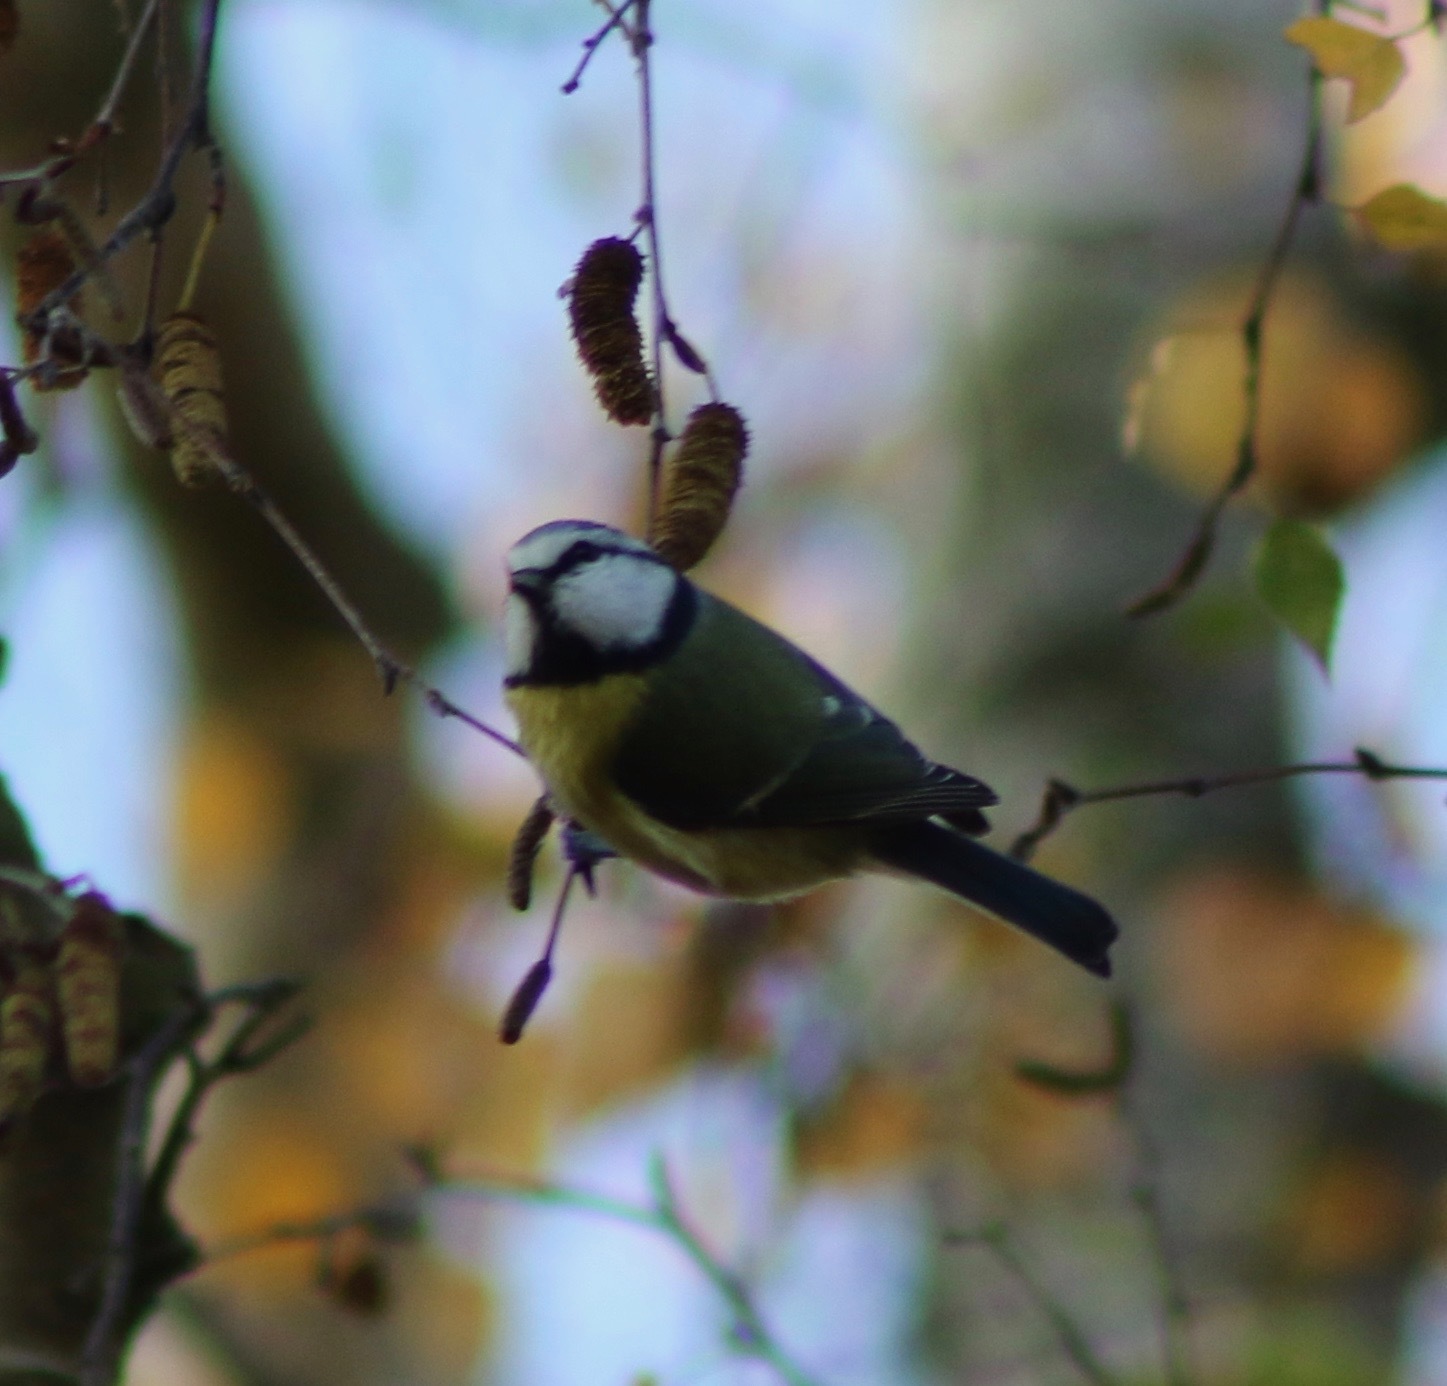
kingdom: Animalia
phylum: Chordata
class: Aves
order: Passeriformes
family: Paridae
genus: Cyanistes
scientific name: Cyanistes caeruleus
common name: Eurasian blue tit
